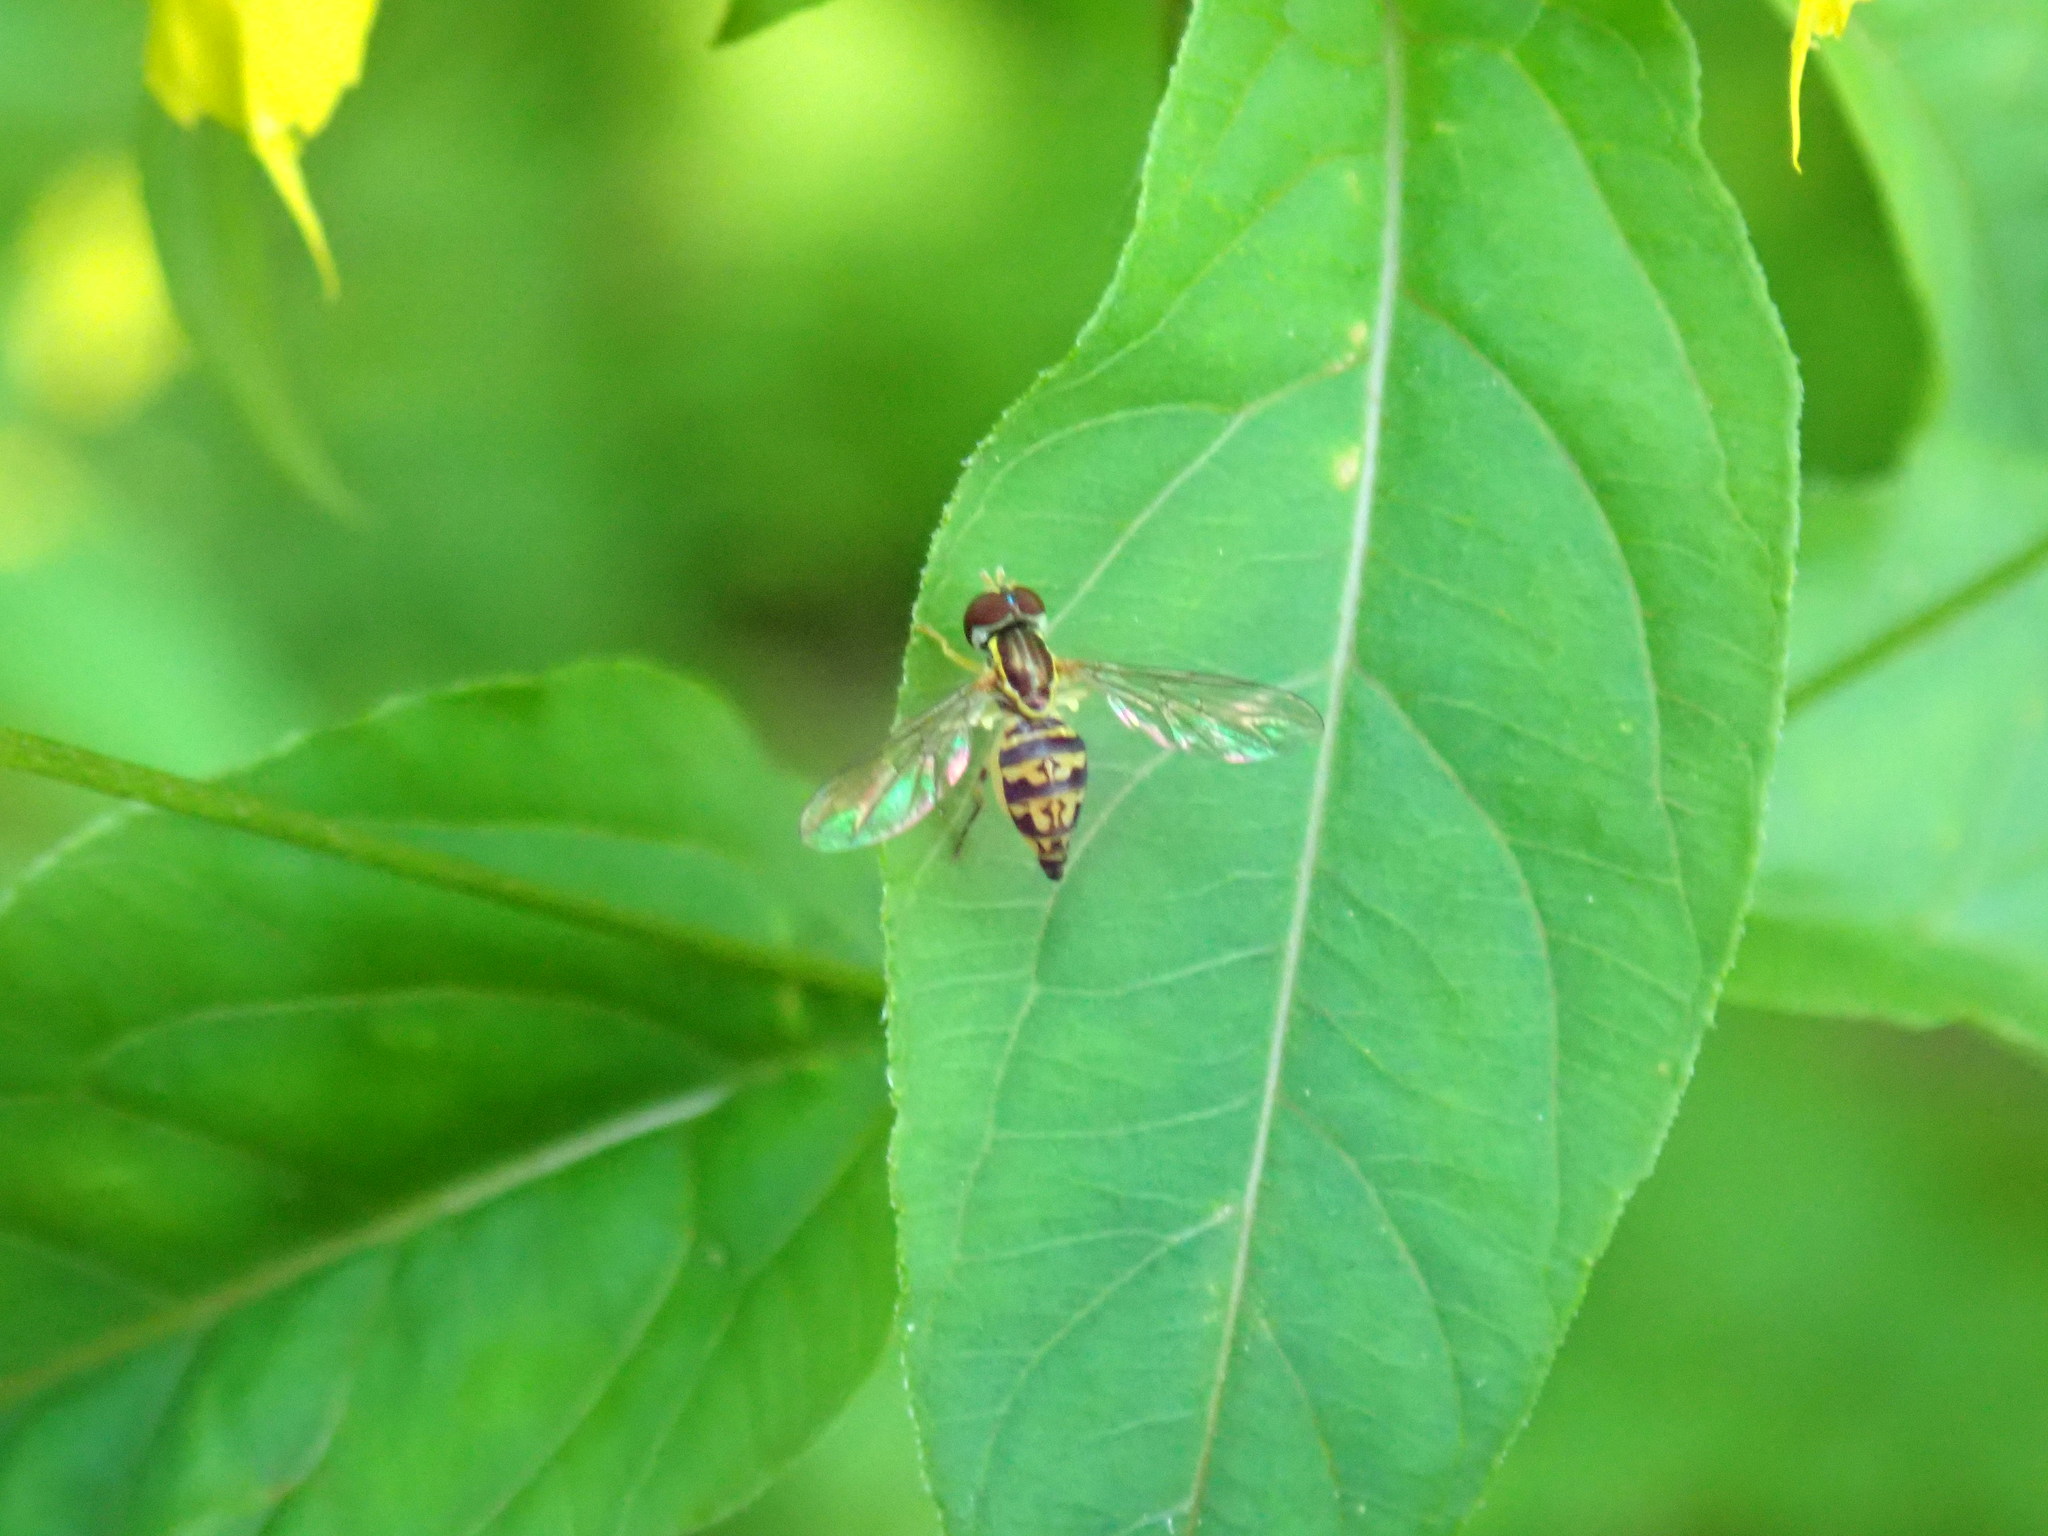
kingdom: Animalia
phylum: Arthropoda
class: Insecta
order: Diptera
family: Syrphidae
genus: Toxomerus
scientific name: Toxomerus geminatus
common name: Eastern calligrapher
